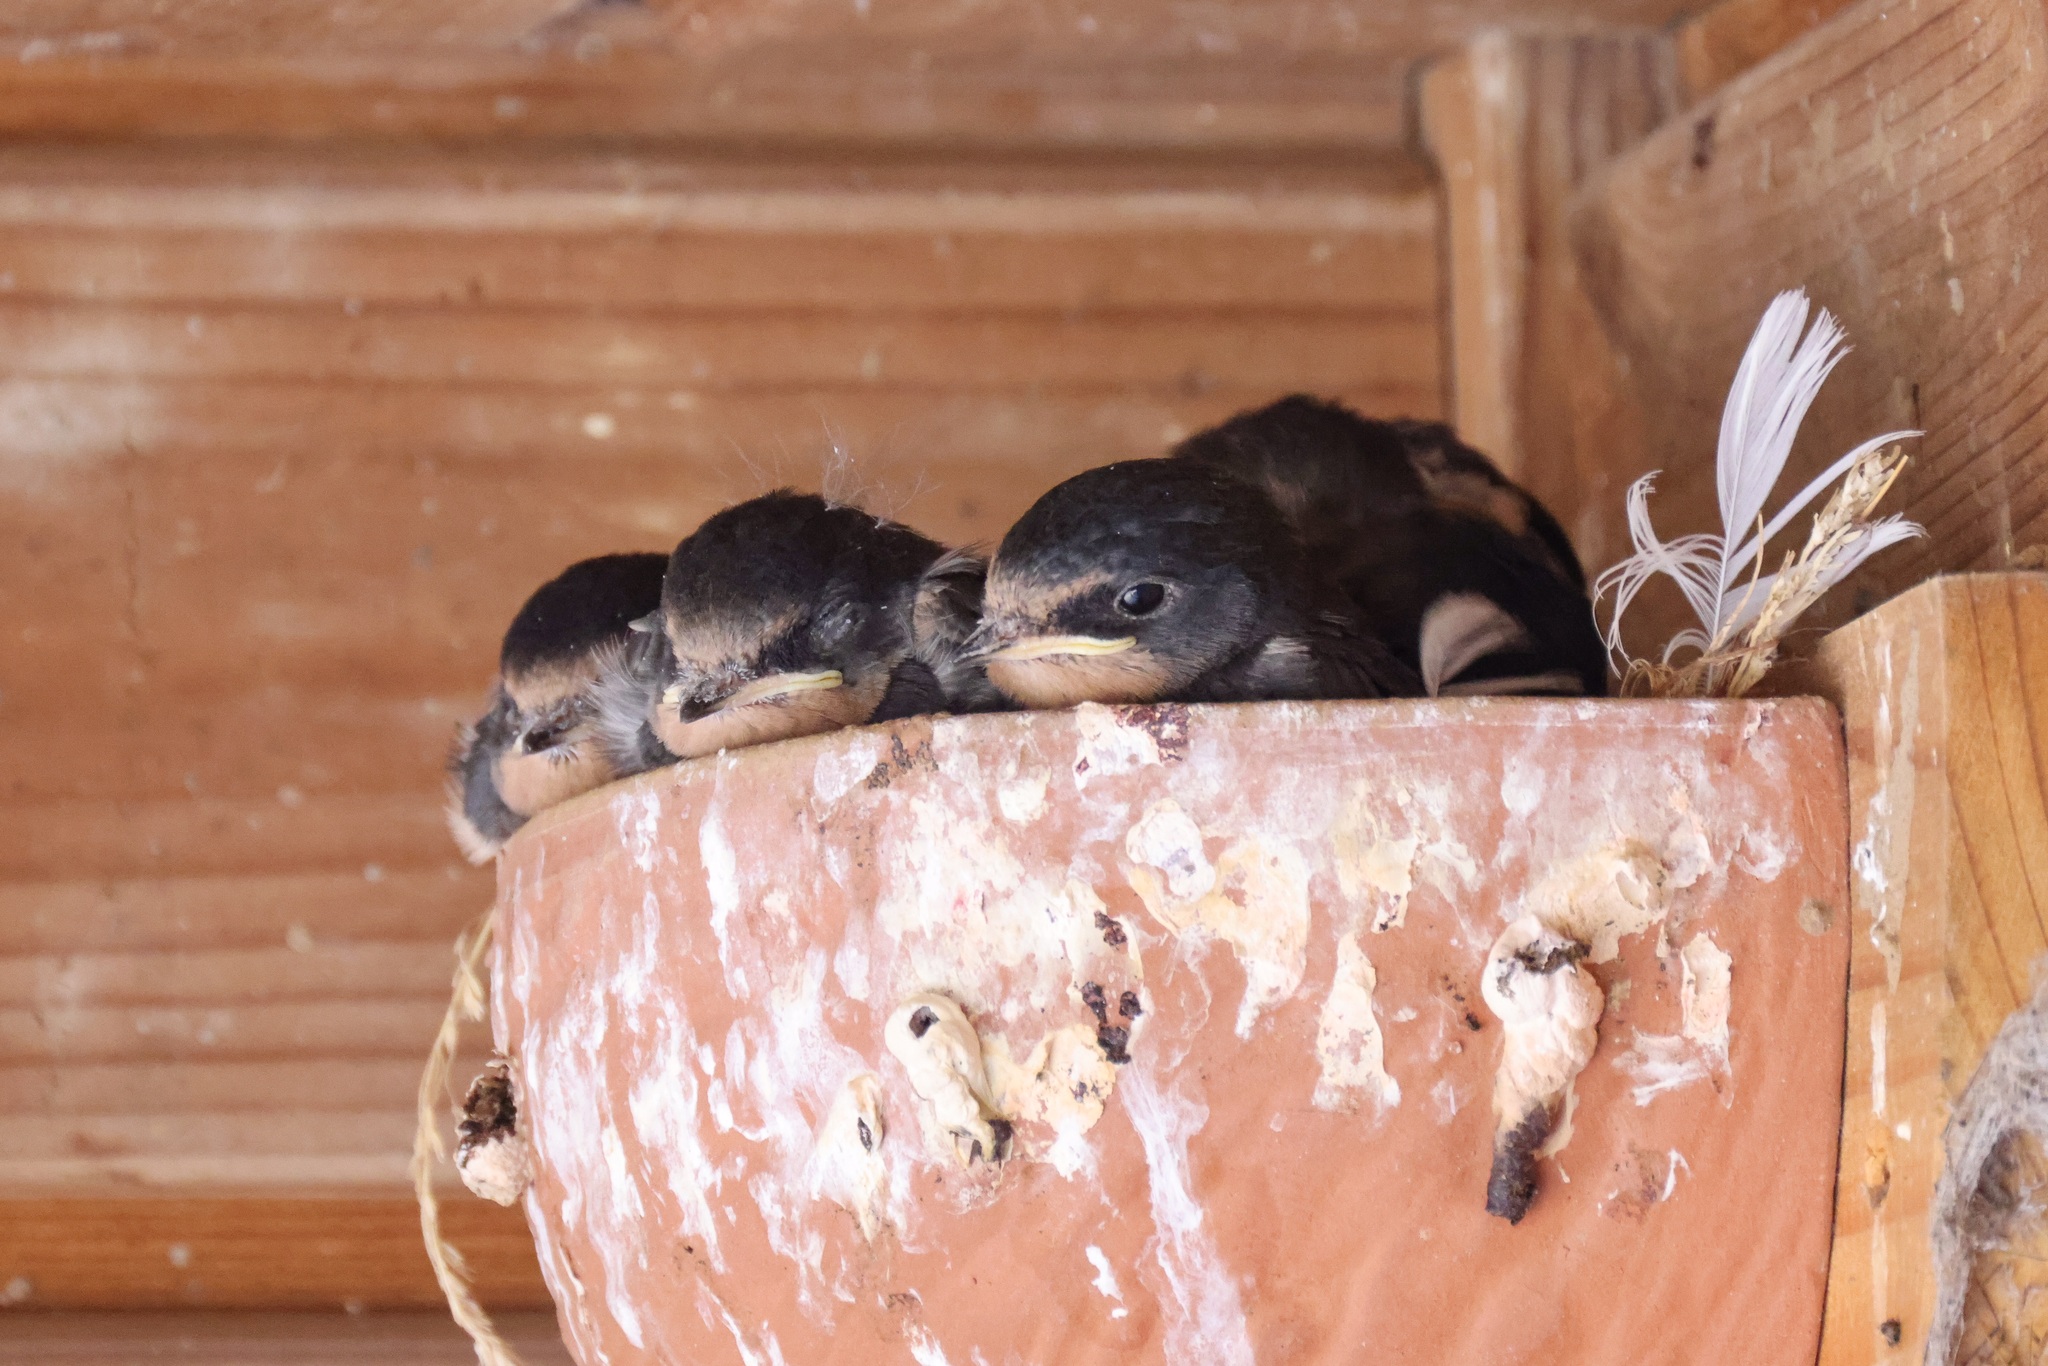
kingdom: Animalia
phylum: Chordata
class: Aves
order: Passeriformes
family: Hirundinidae
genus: Hirundo
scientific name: Hirundo rustica
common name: Barn swallow
